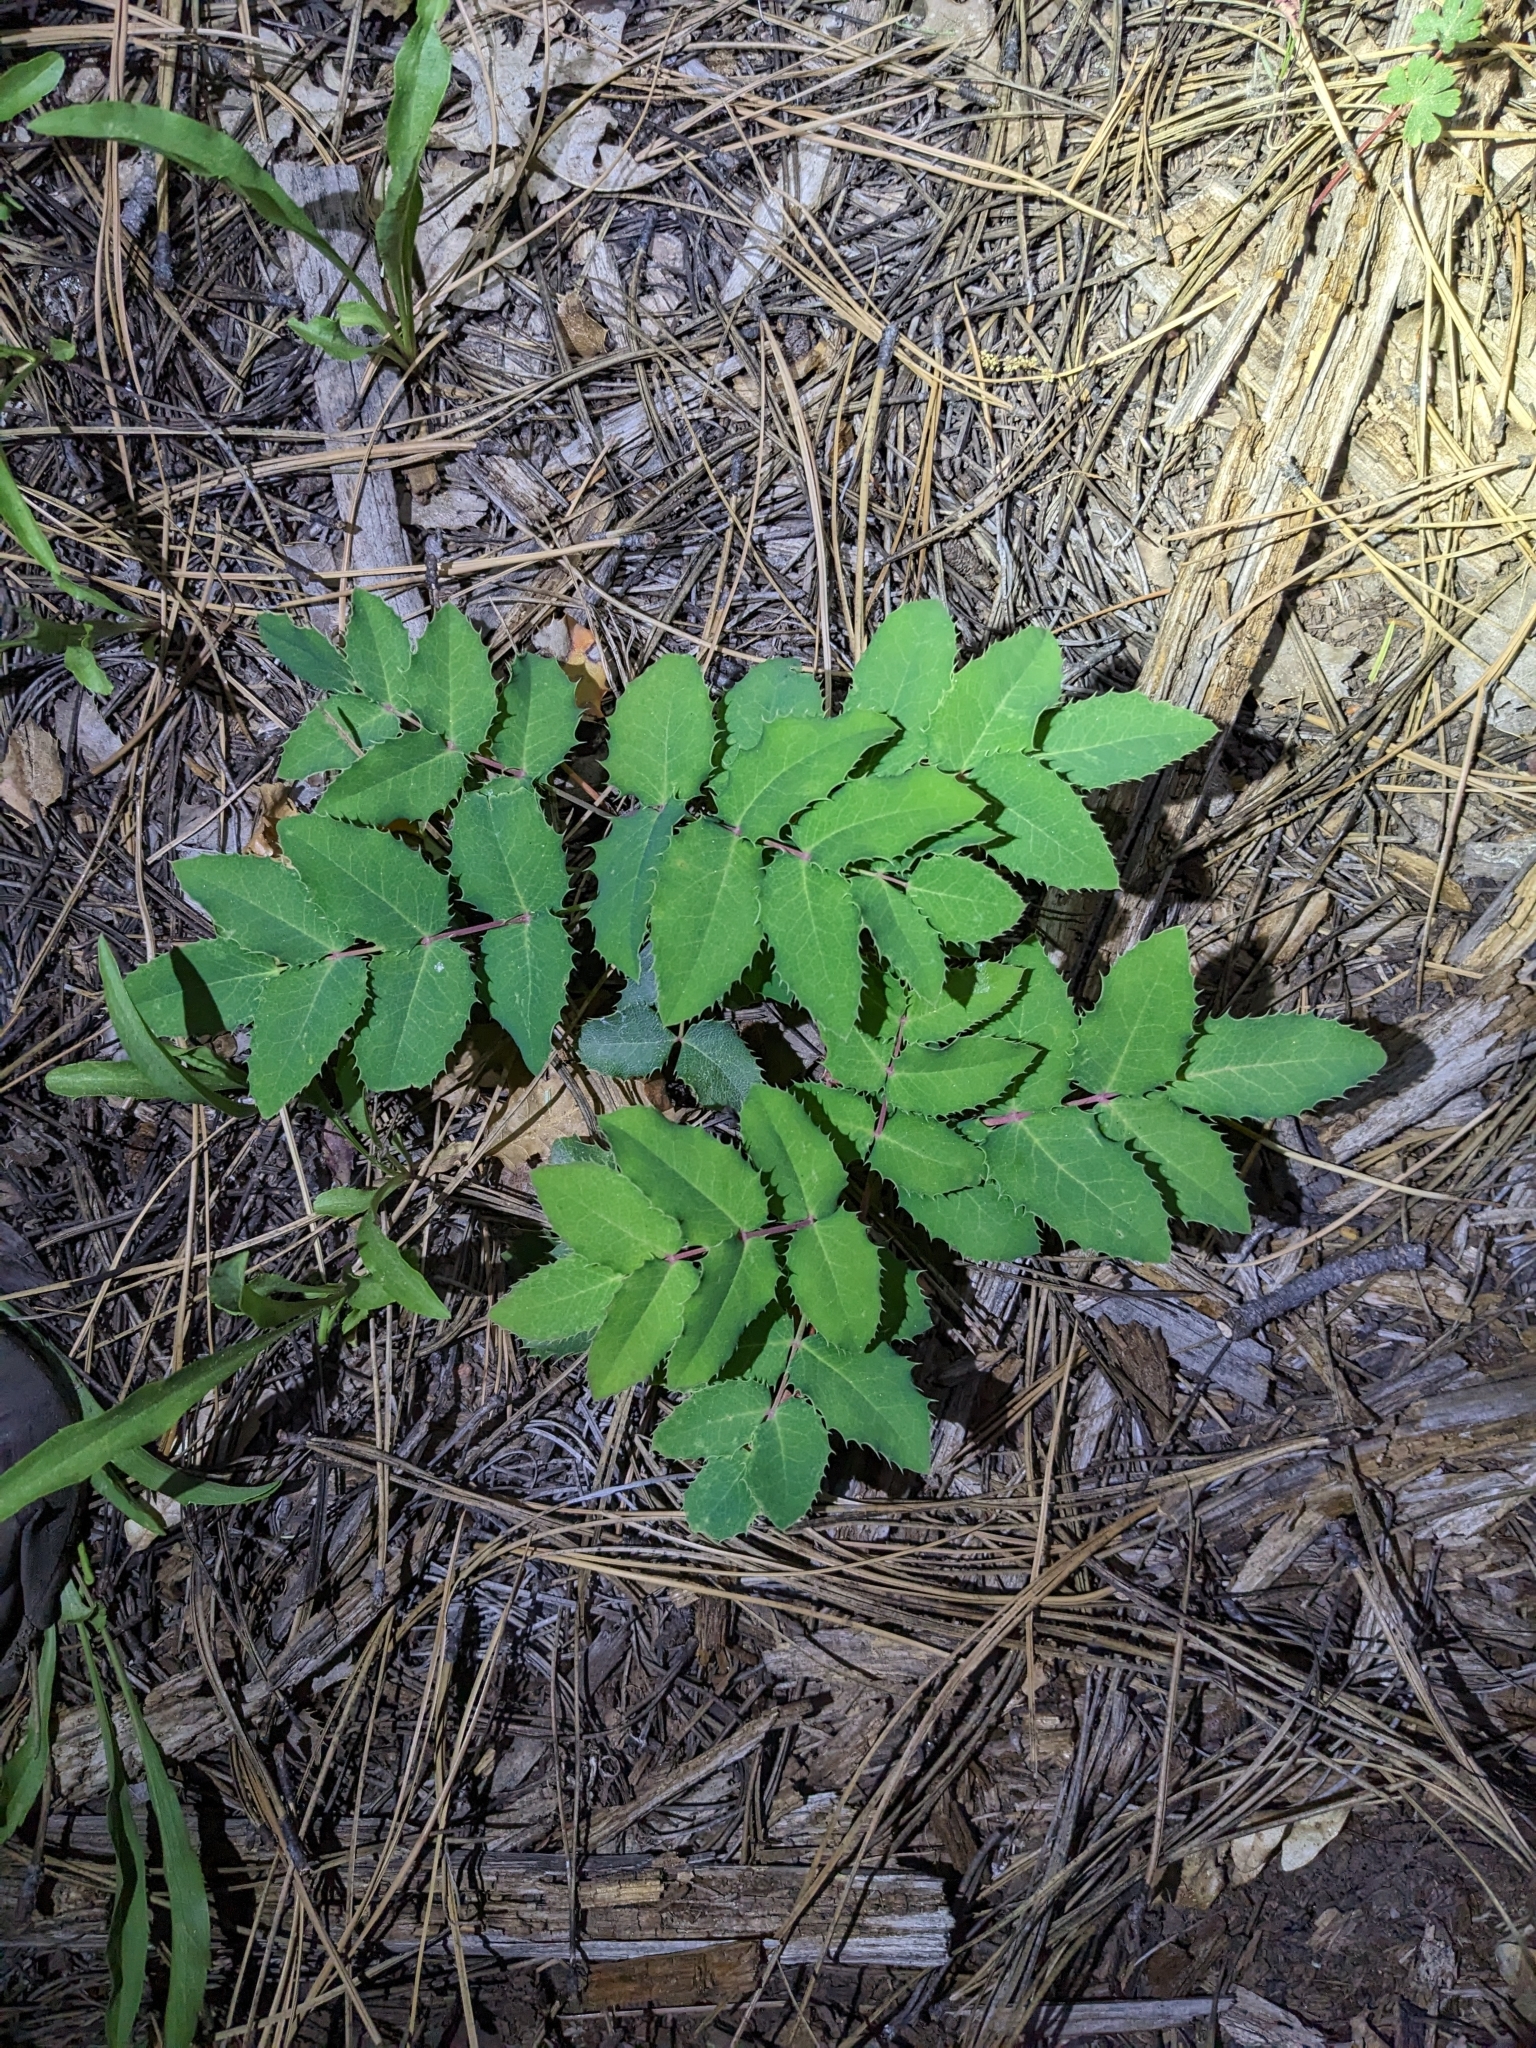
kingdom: Plantae
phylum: Tracheophyta
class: Magnoliopsida
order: Ranunculales
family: Berberidaceae
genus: Mahonia
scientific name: Mahonia repens
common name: Creeping oregon-grape
